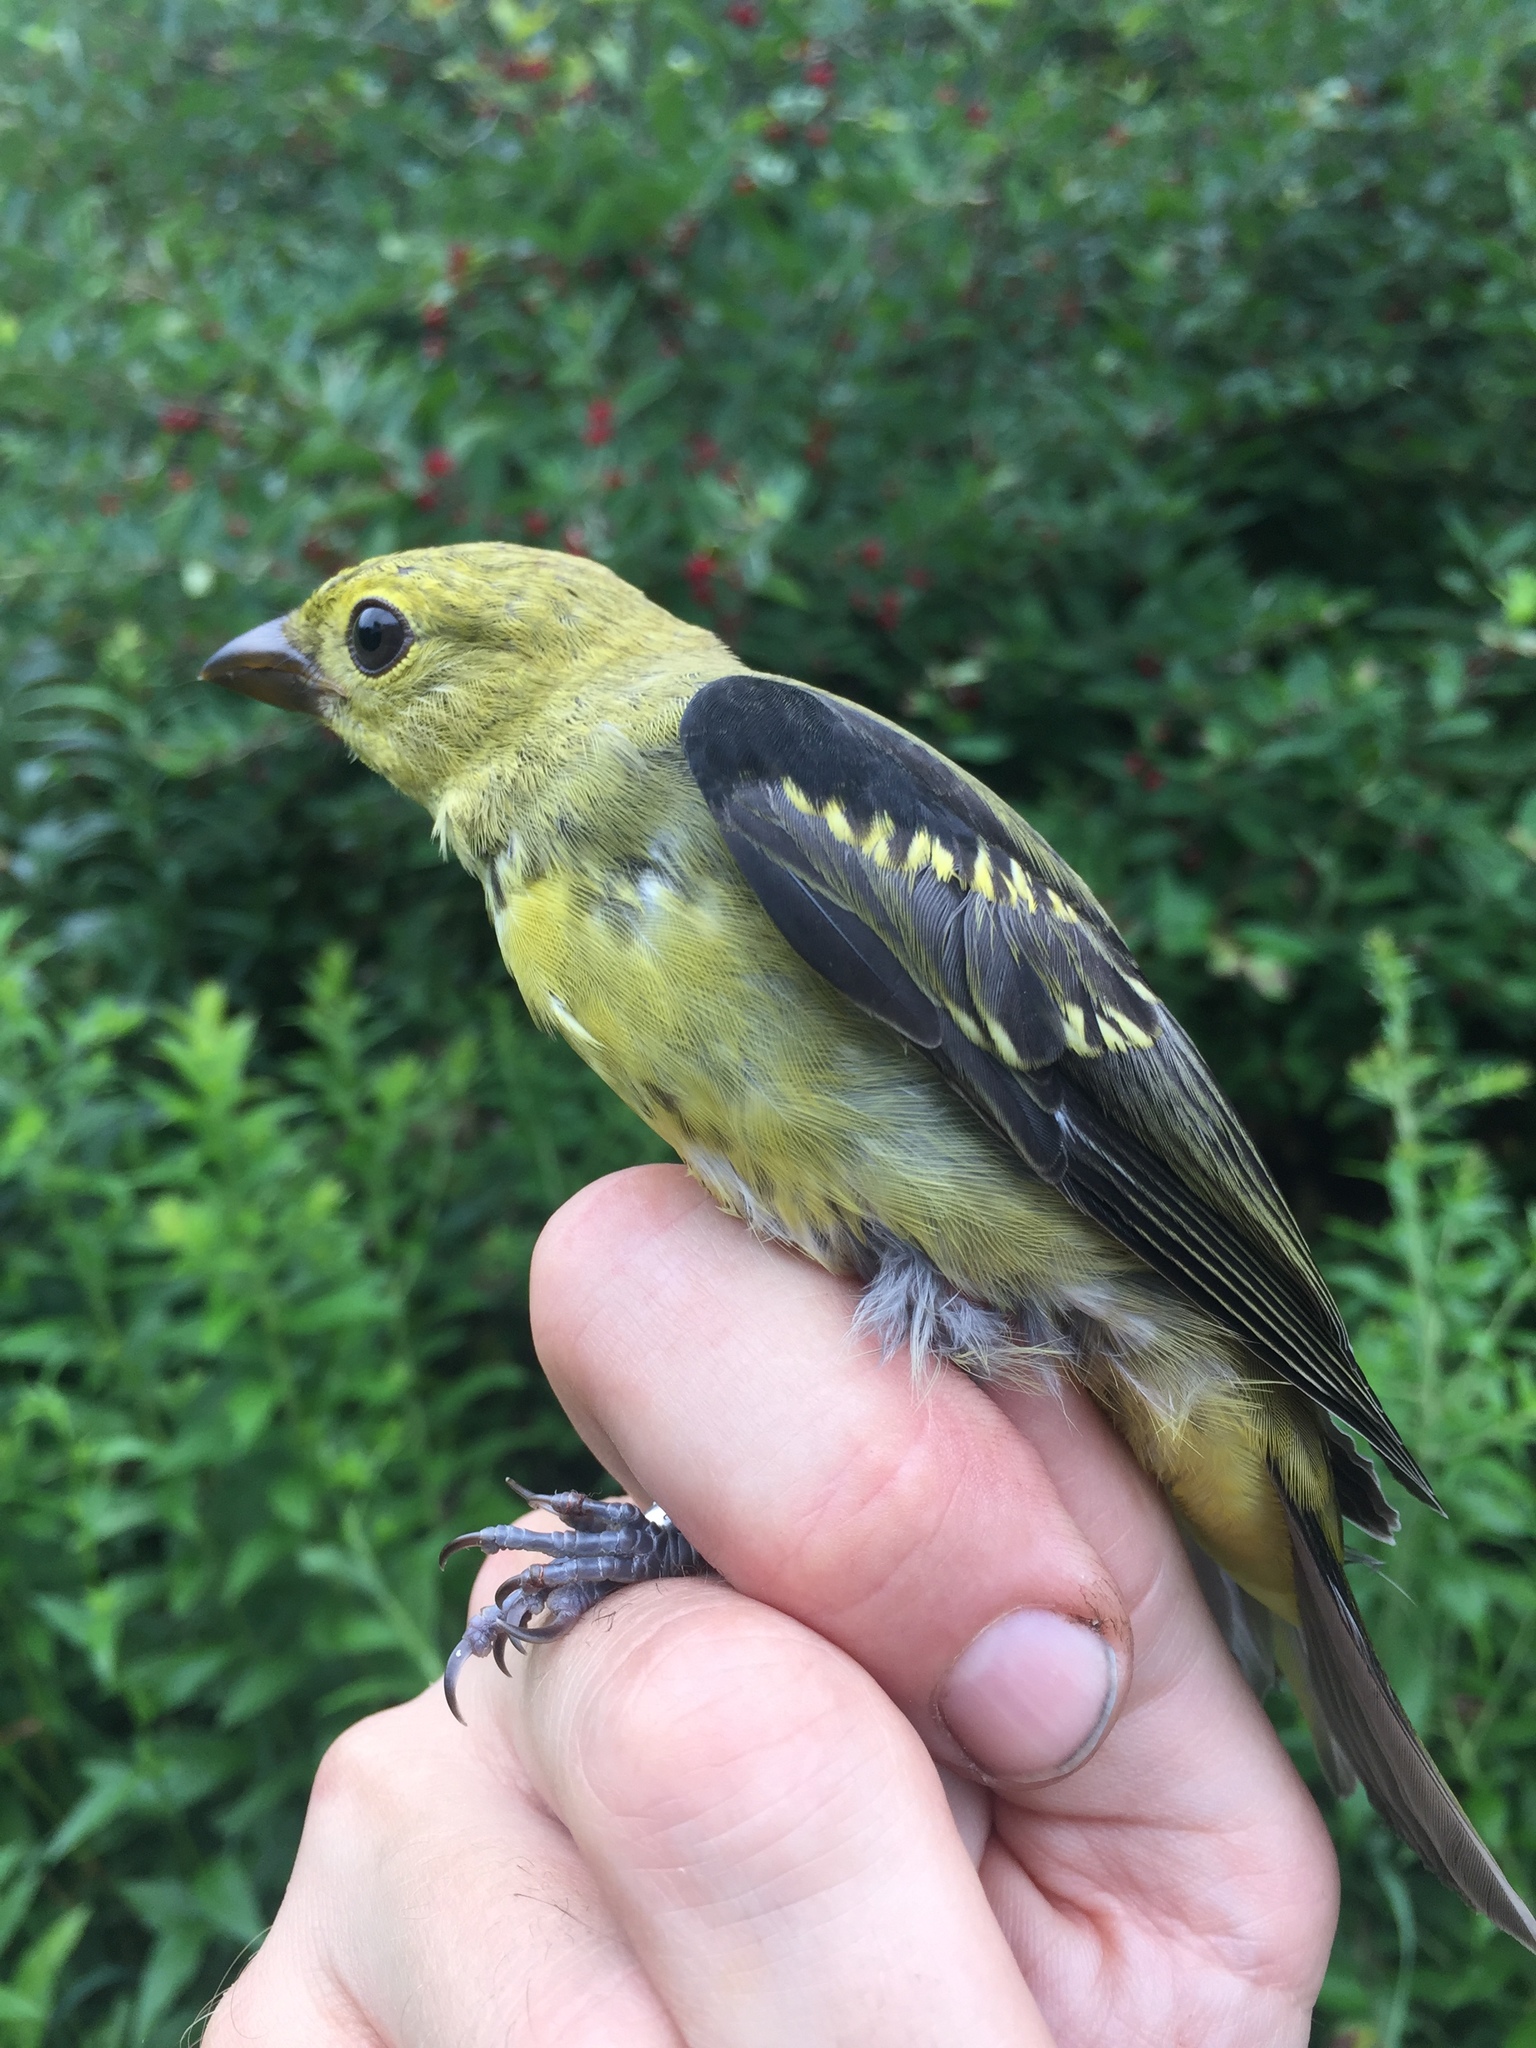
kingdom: Animalia
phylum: Chordata
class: Aves
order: Passeriformes
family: Cardinalidae
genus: Piranga
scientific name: Piranga olivacea
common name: Scarlet tanager
